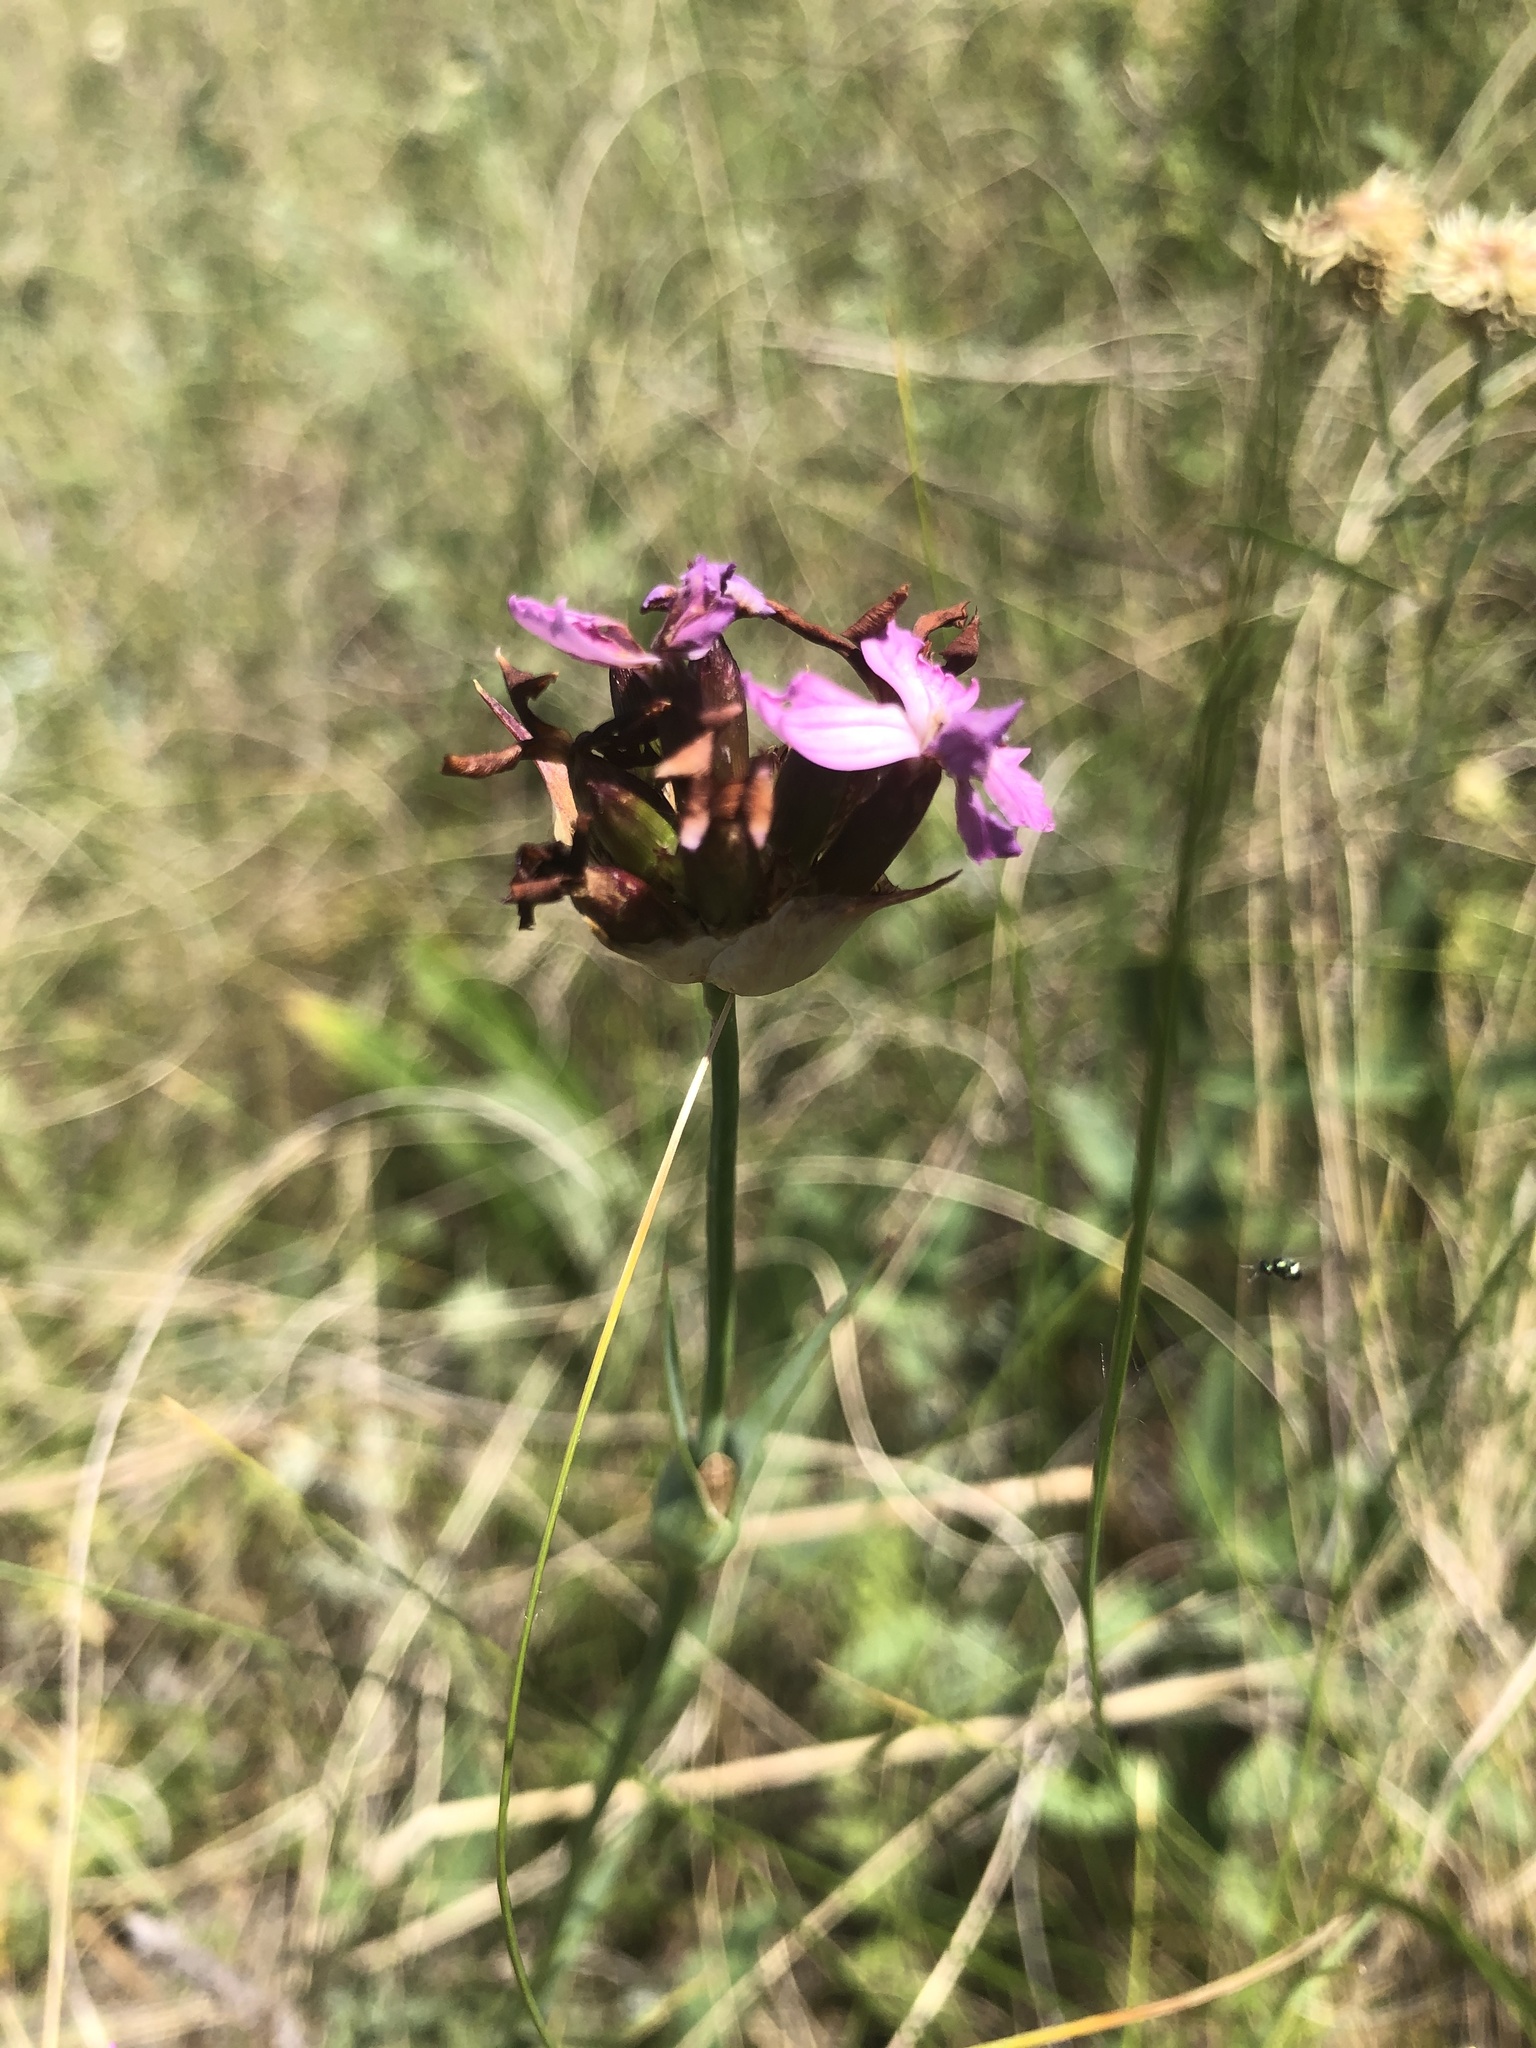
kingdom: Plantae
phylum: Tracheophyta
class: Magnoliopsida
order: Caryophyllales
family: Caryophyllaceae
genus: Dianthus
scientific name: Dianthus capitatus
